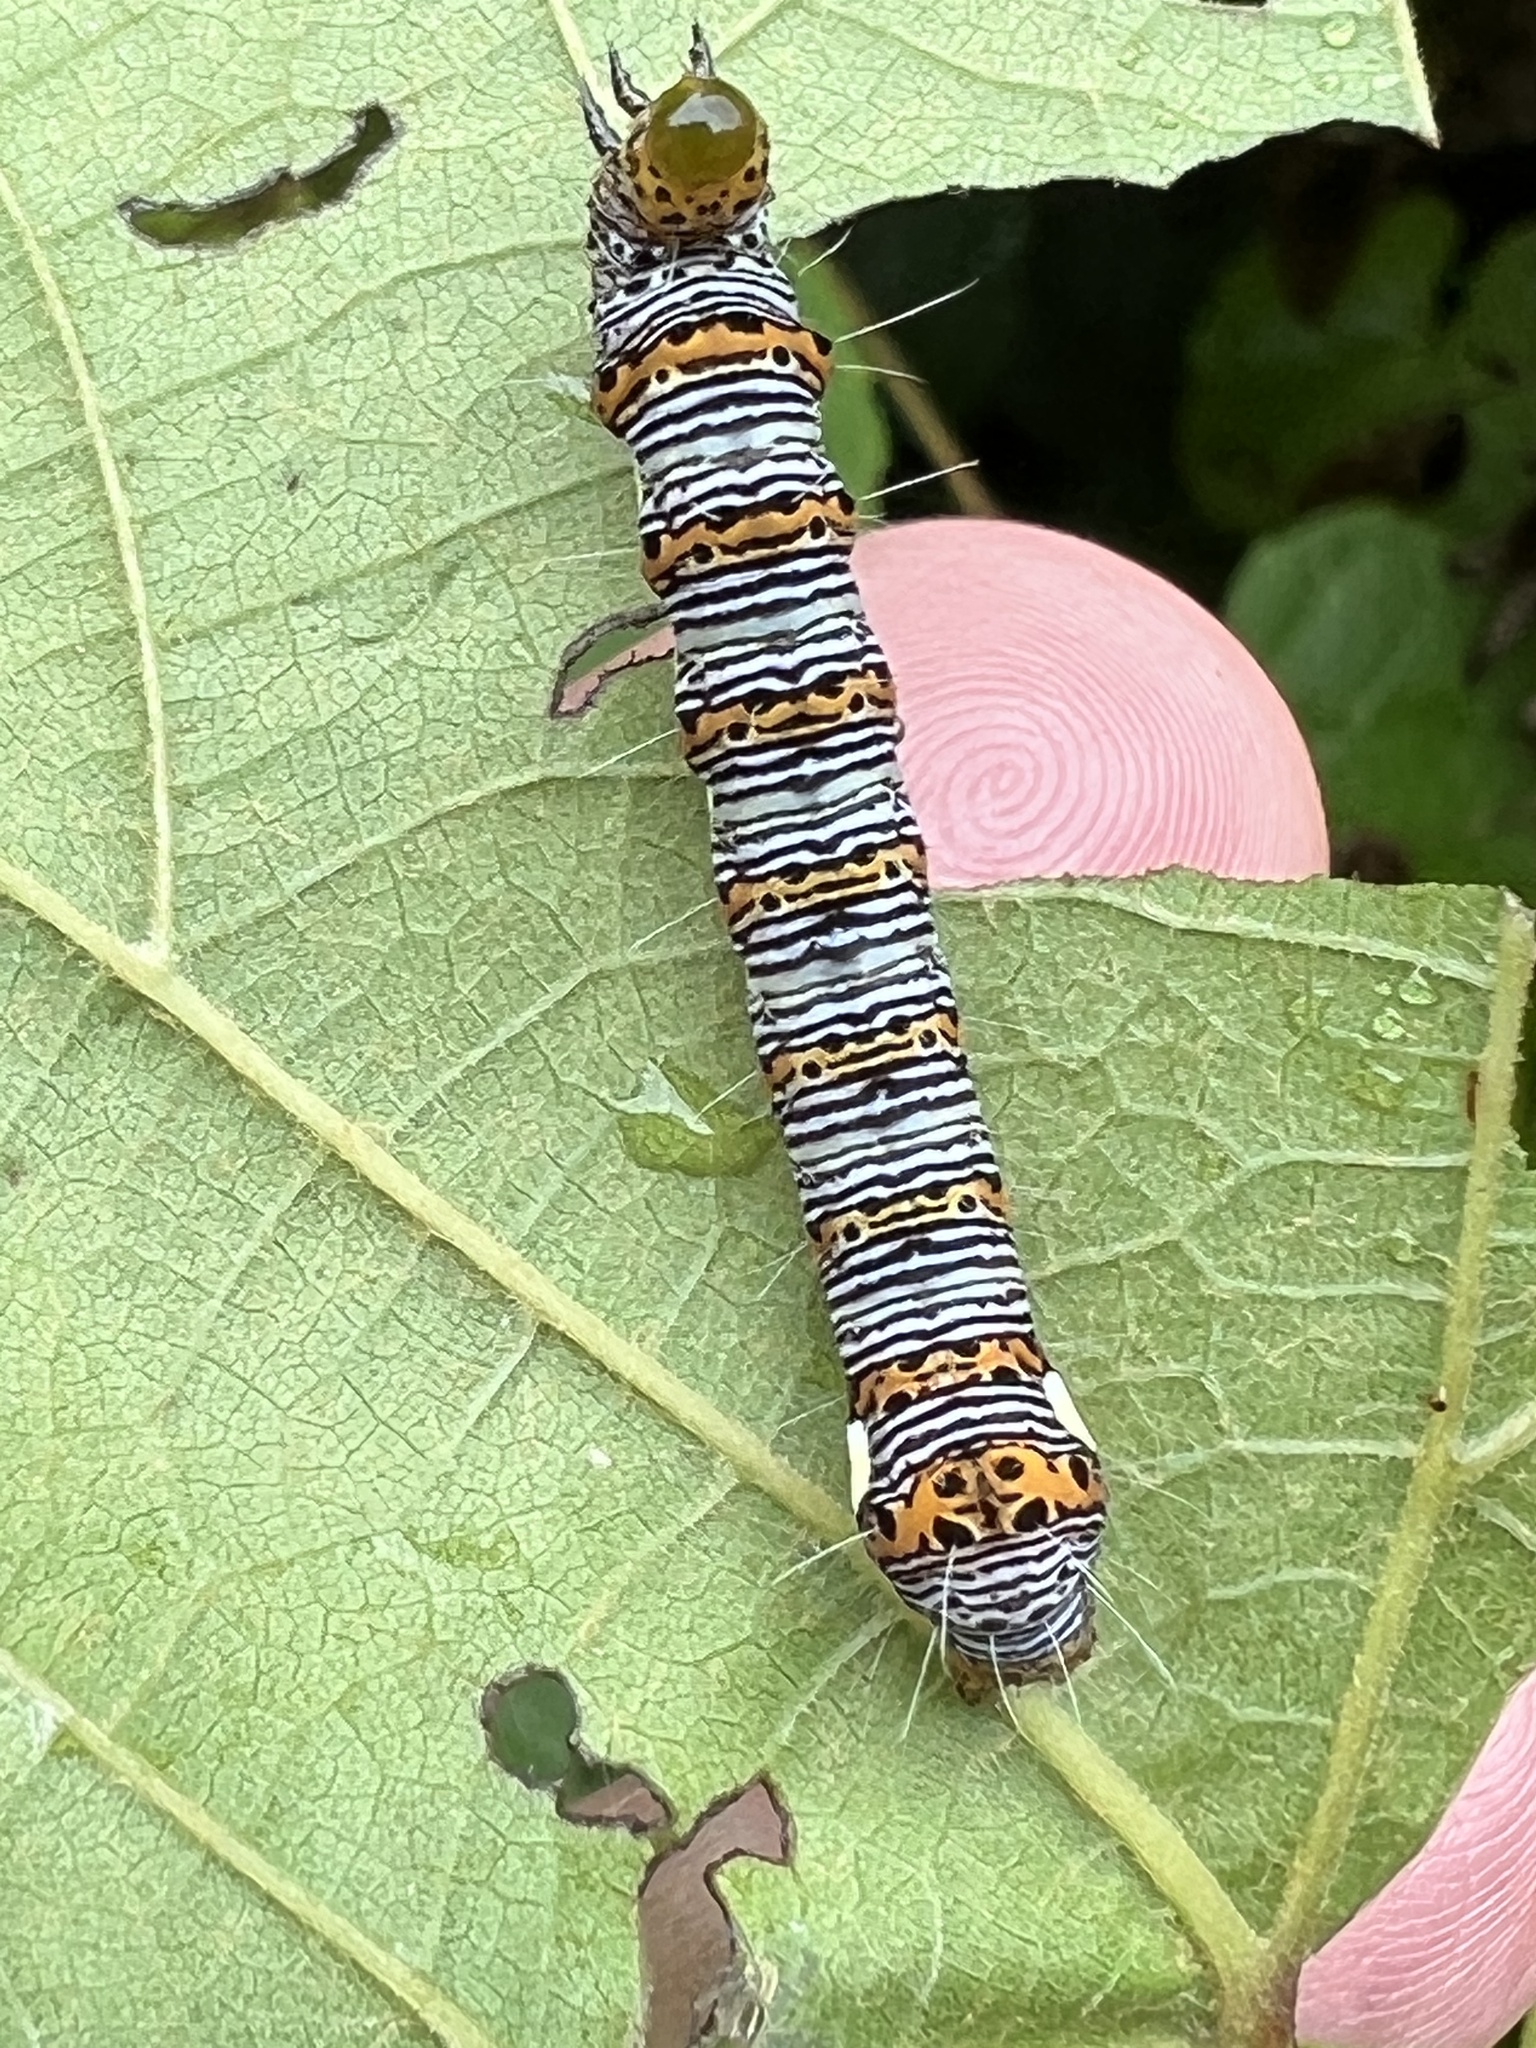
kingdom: Animalia
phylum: Arthropoda
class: Insecta
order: Lepidoptera
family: Noctuidae
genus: Alypia
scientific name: Alypia octomaculata
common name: Eight-spotted forester
